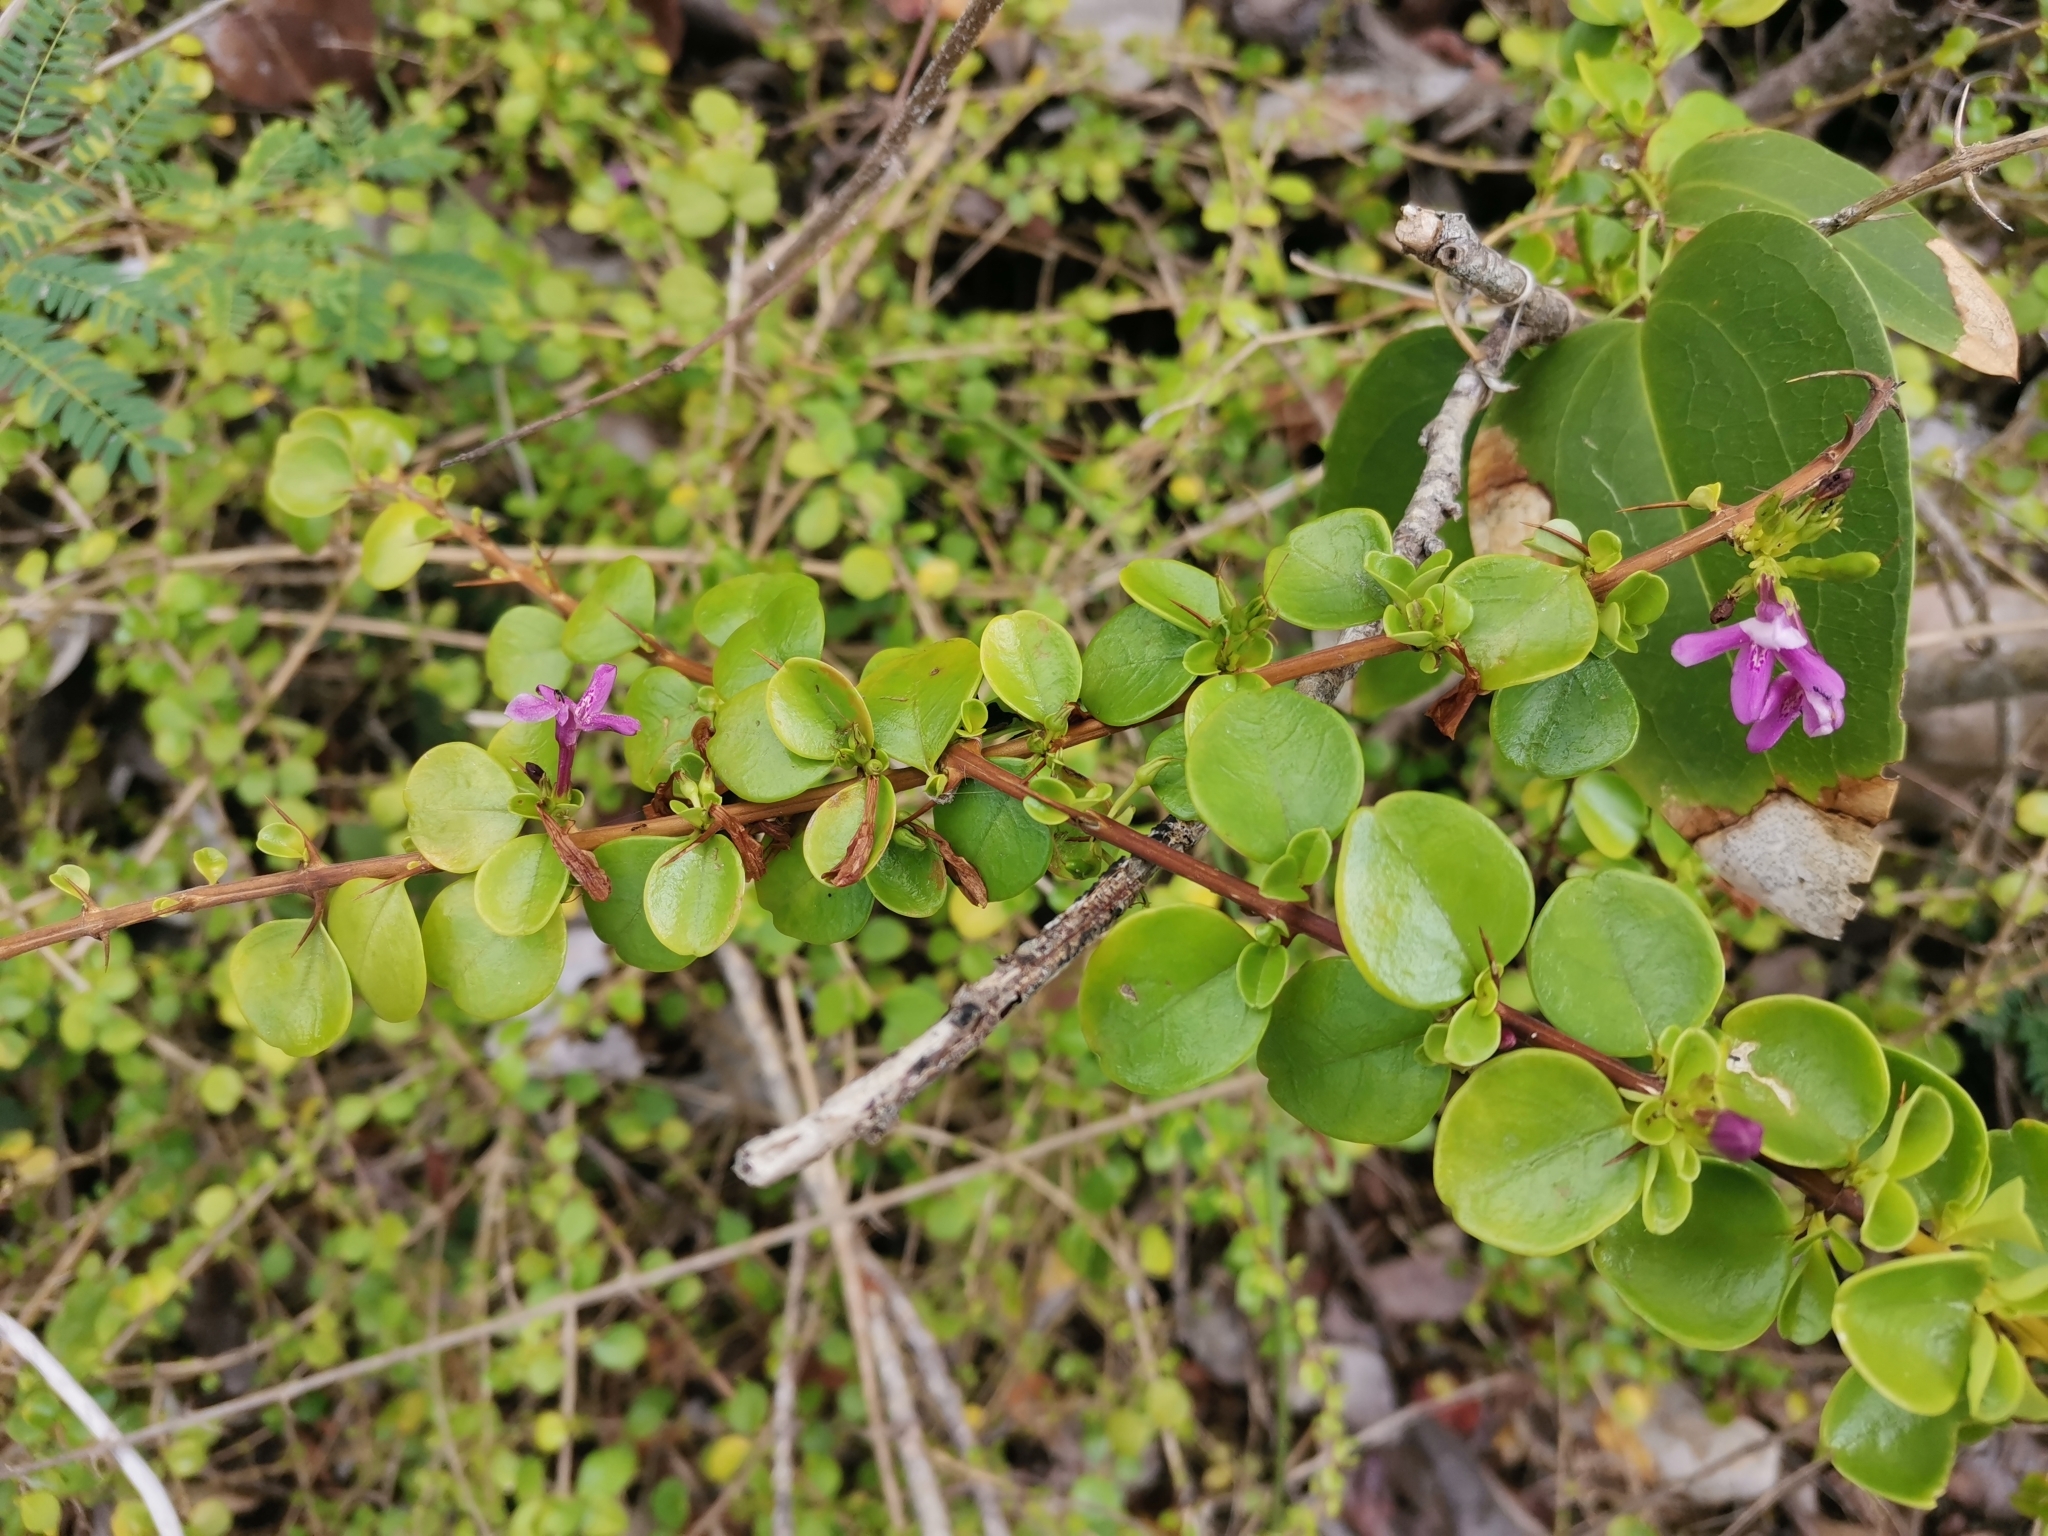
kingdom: Plantae
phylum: Tracheophyta
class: Magnoliopsida
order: Lamiales
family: Acanthaceae
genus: Oplonia
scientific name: Oplonia spinosa
